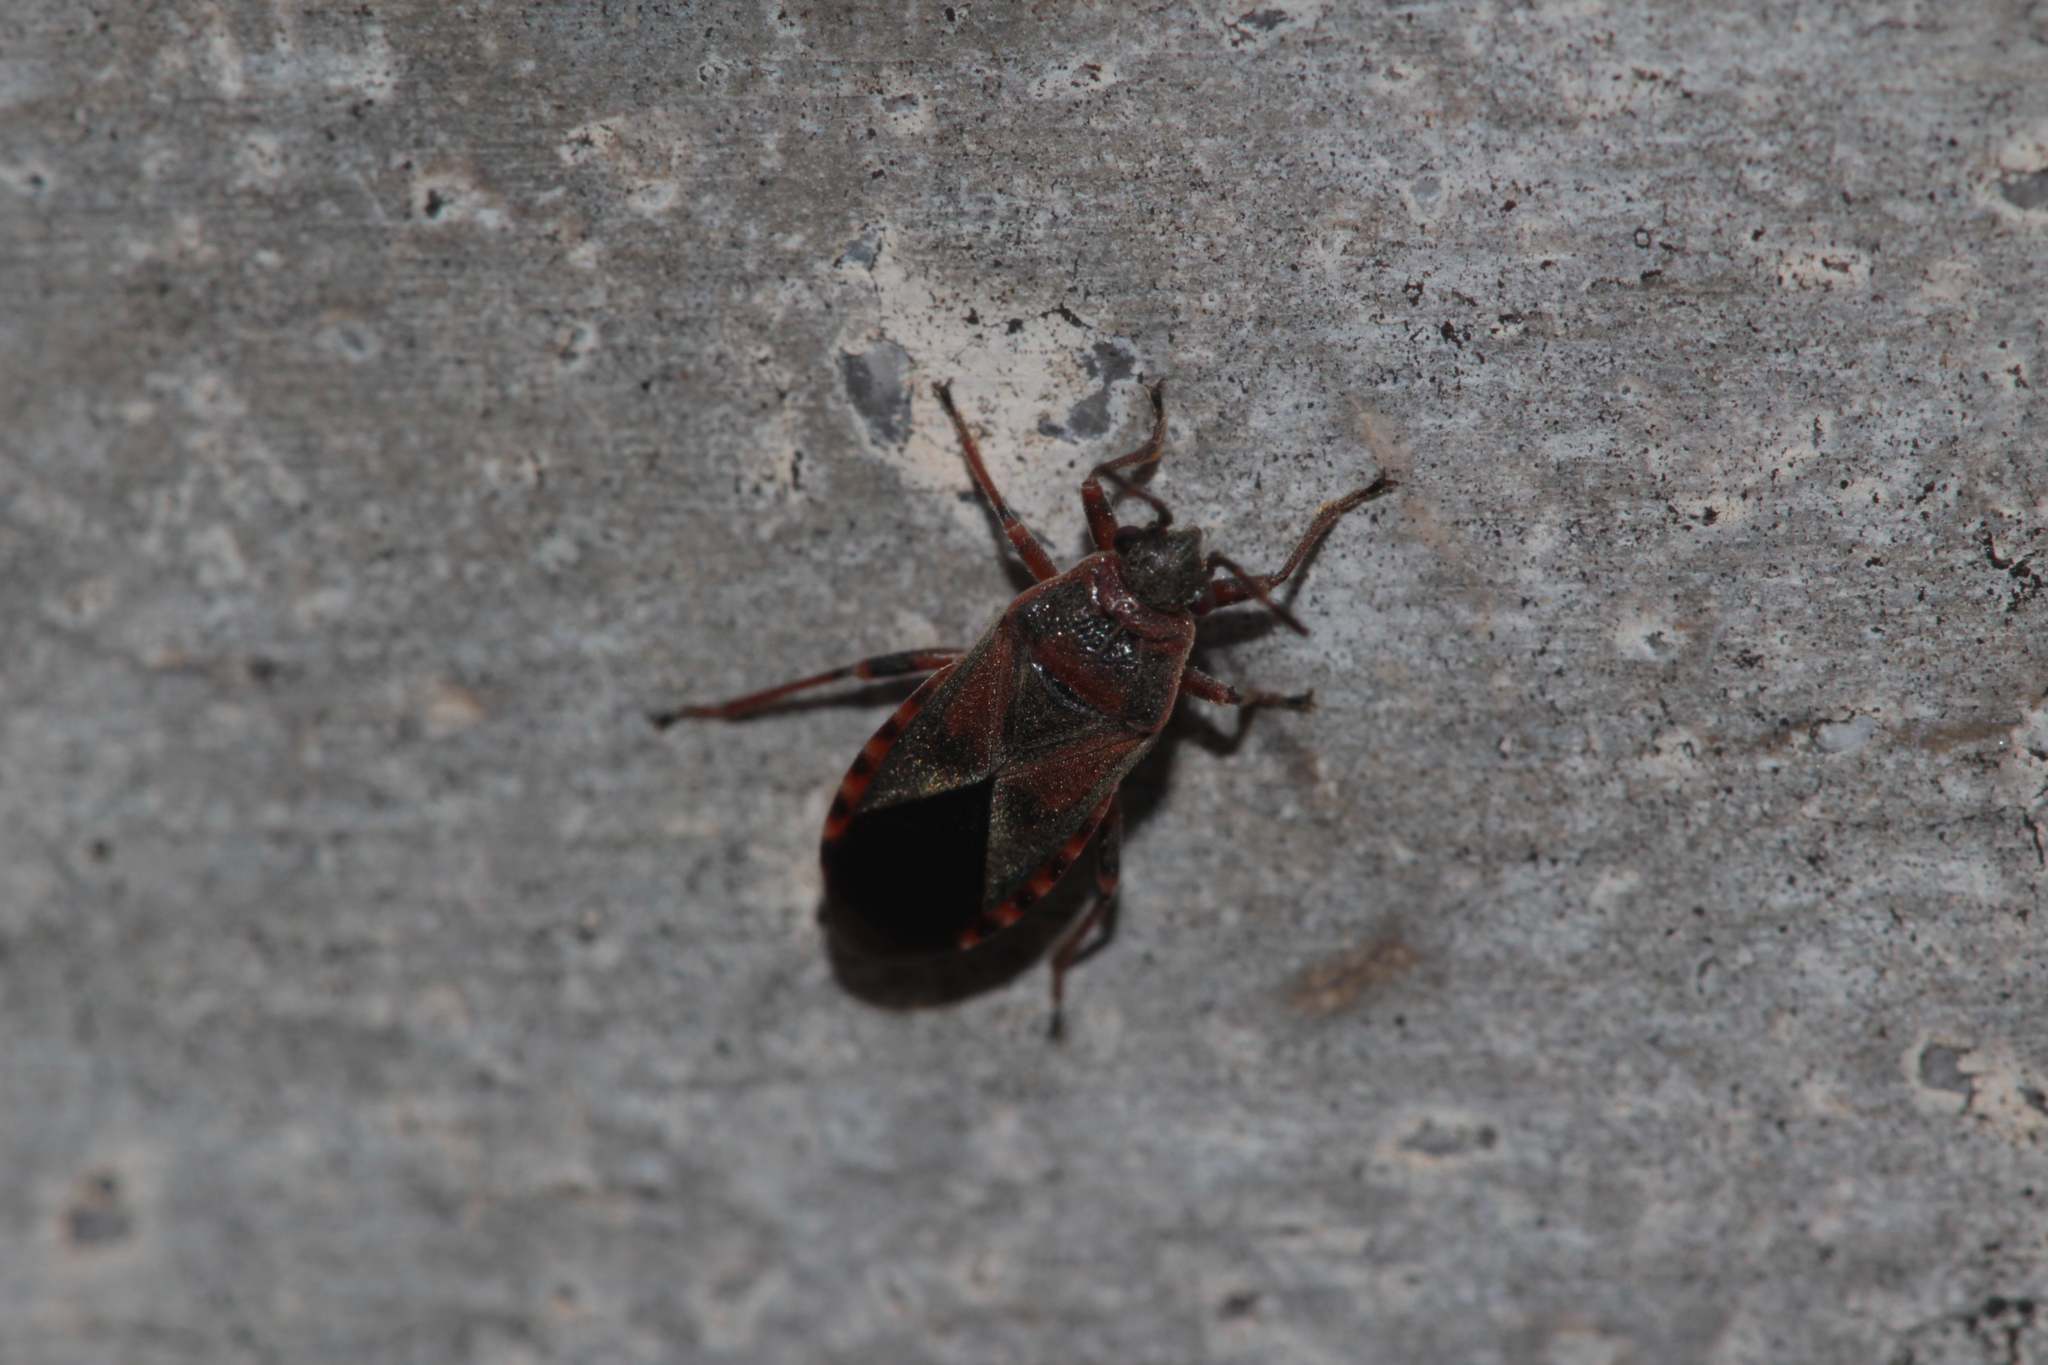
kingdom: Animalia
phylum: Arthropoda
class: Insecta
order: Hemiptera
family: Lygaeidae
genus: Arocatus
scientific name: Arocatus melanocephalus
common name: Lygaeid bug
